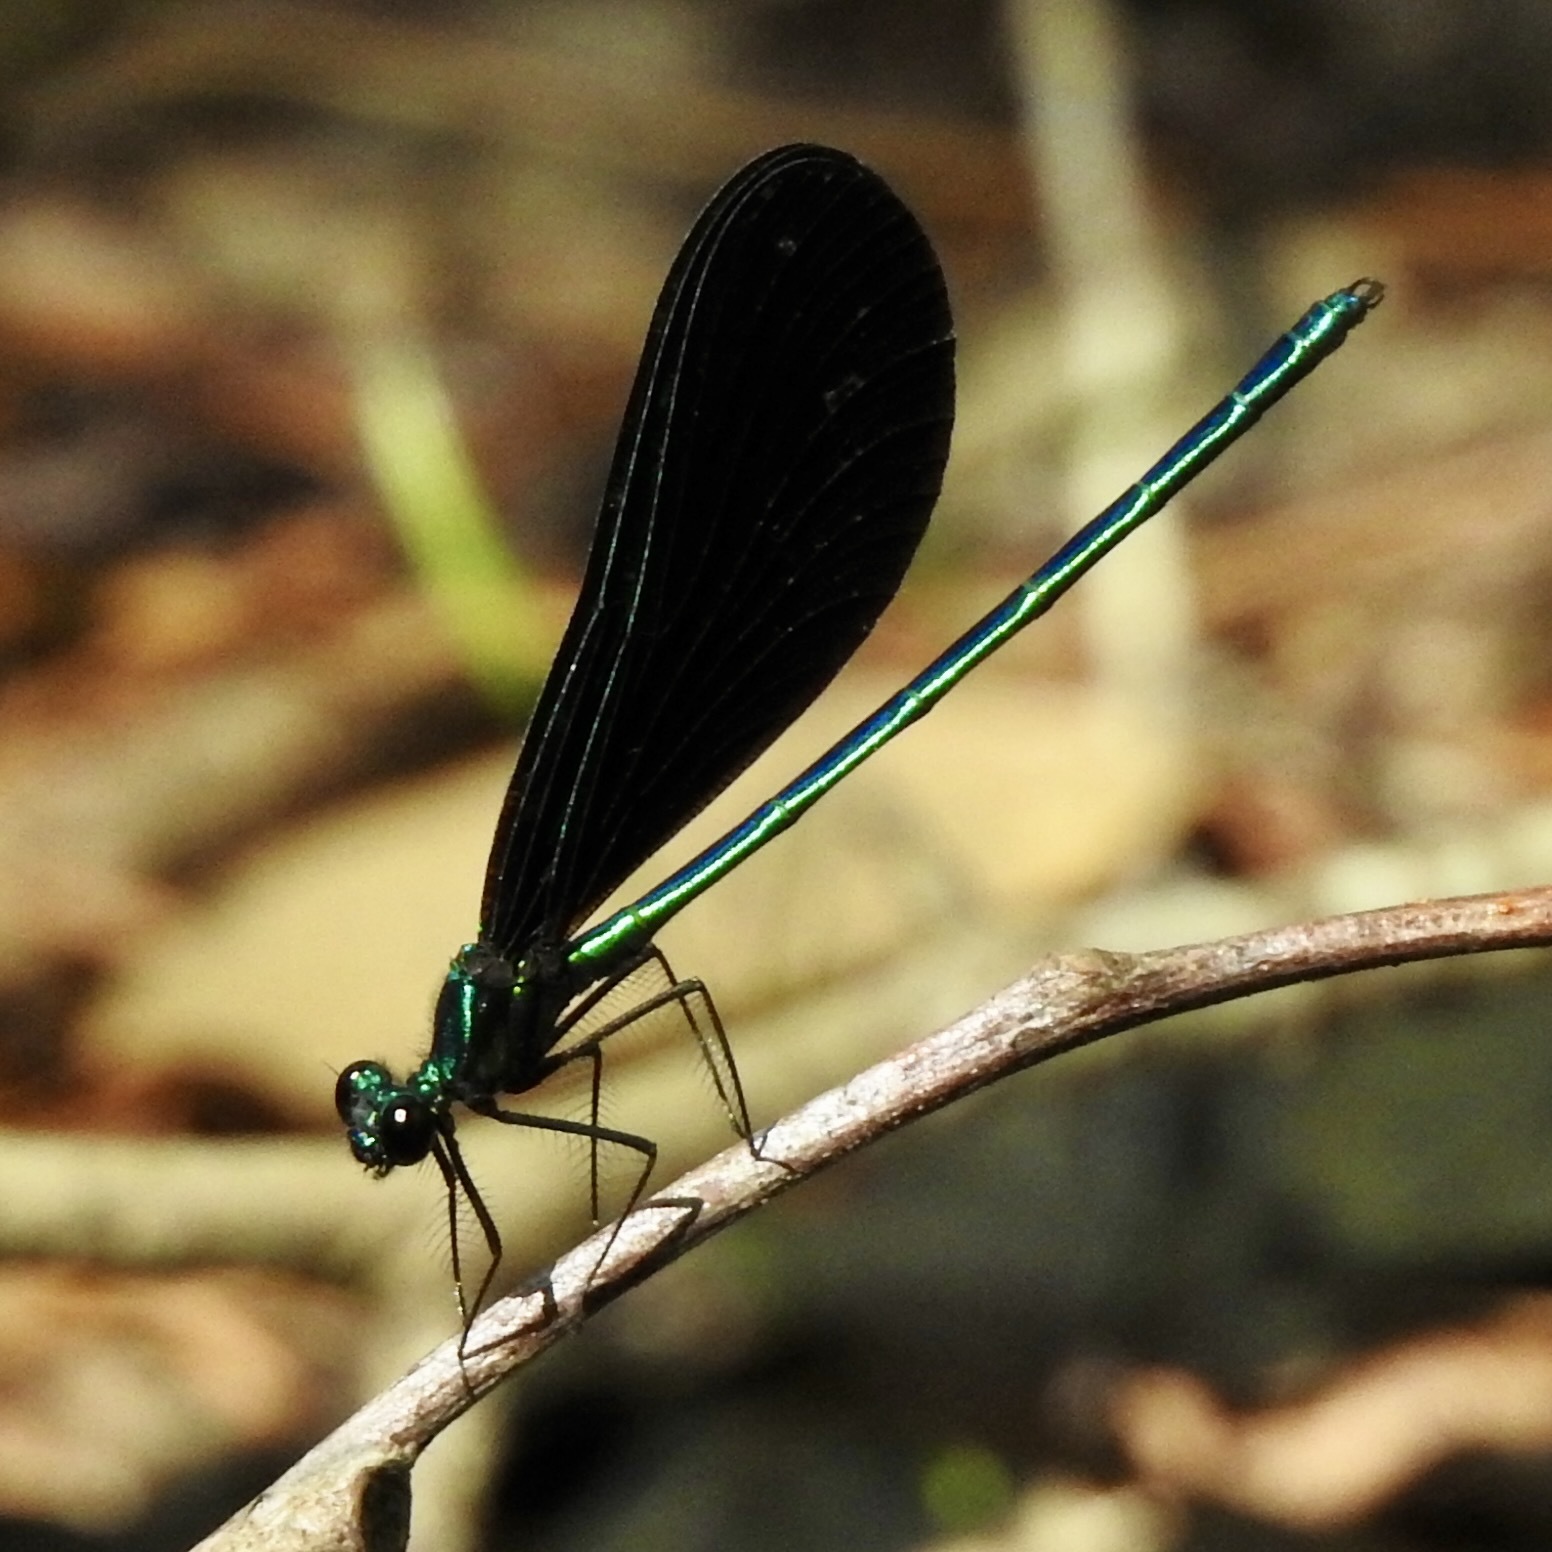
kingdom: Animalia
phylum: Arthropoda
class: Insecta
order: Odonata
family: Calopterygidae
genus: Calopteryx
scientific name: Calopteryx maculata
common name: Ebony jewelwing
